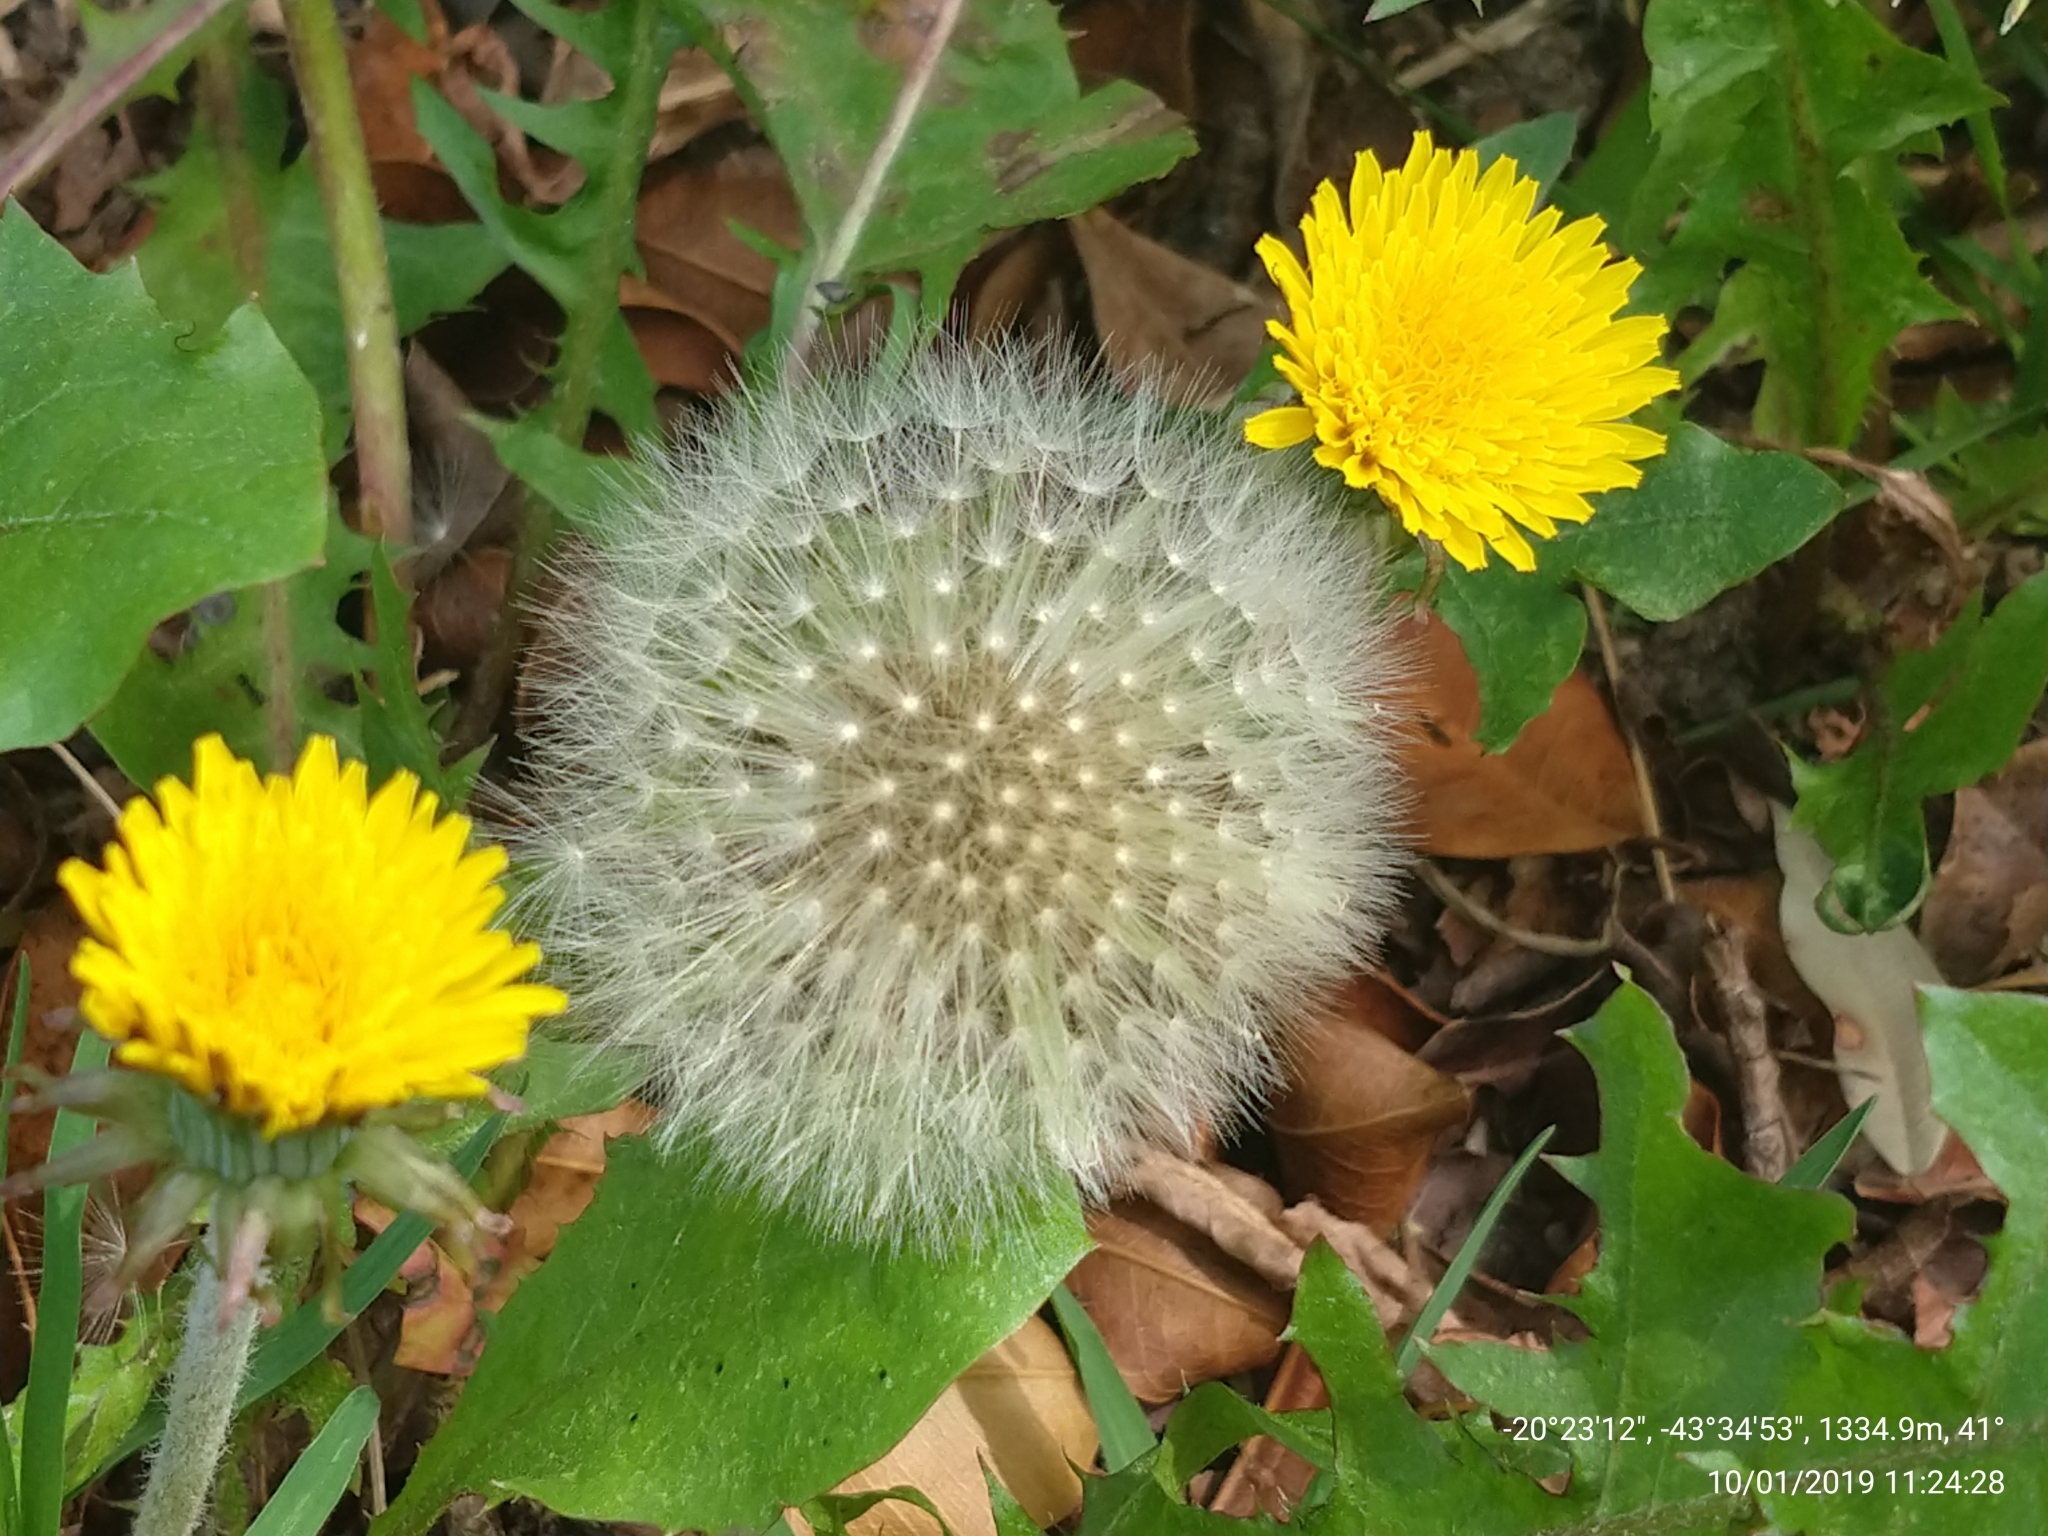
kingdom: Plantae
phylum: Tracheophyta
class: Magnoliopsida
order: Asterales
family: Asteraceae
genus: Taraxacum
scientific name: Taraxacum officinale
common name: Common dandelion
